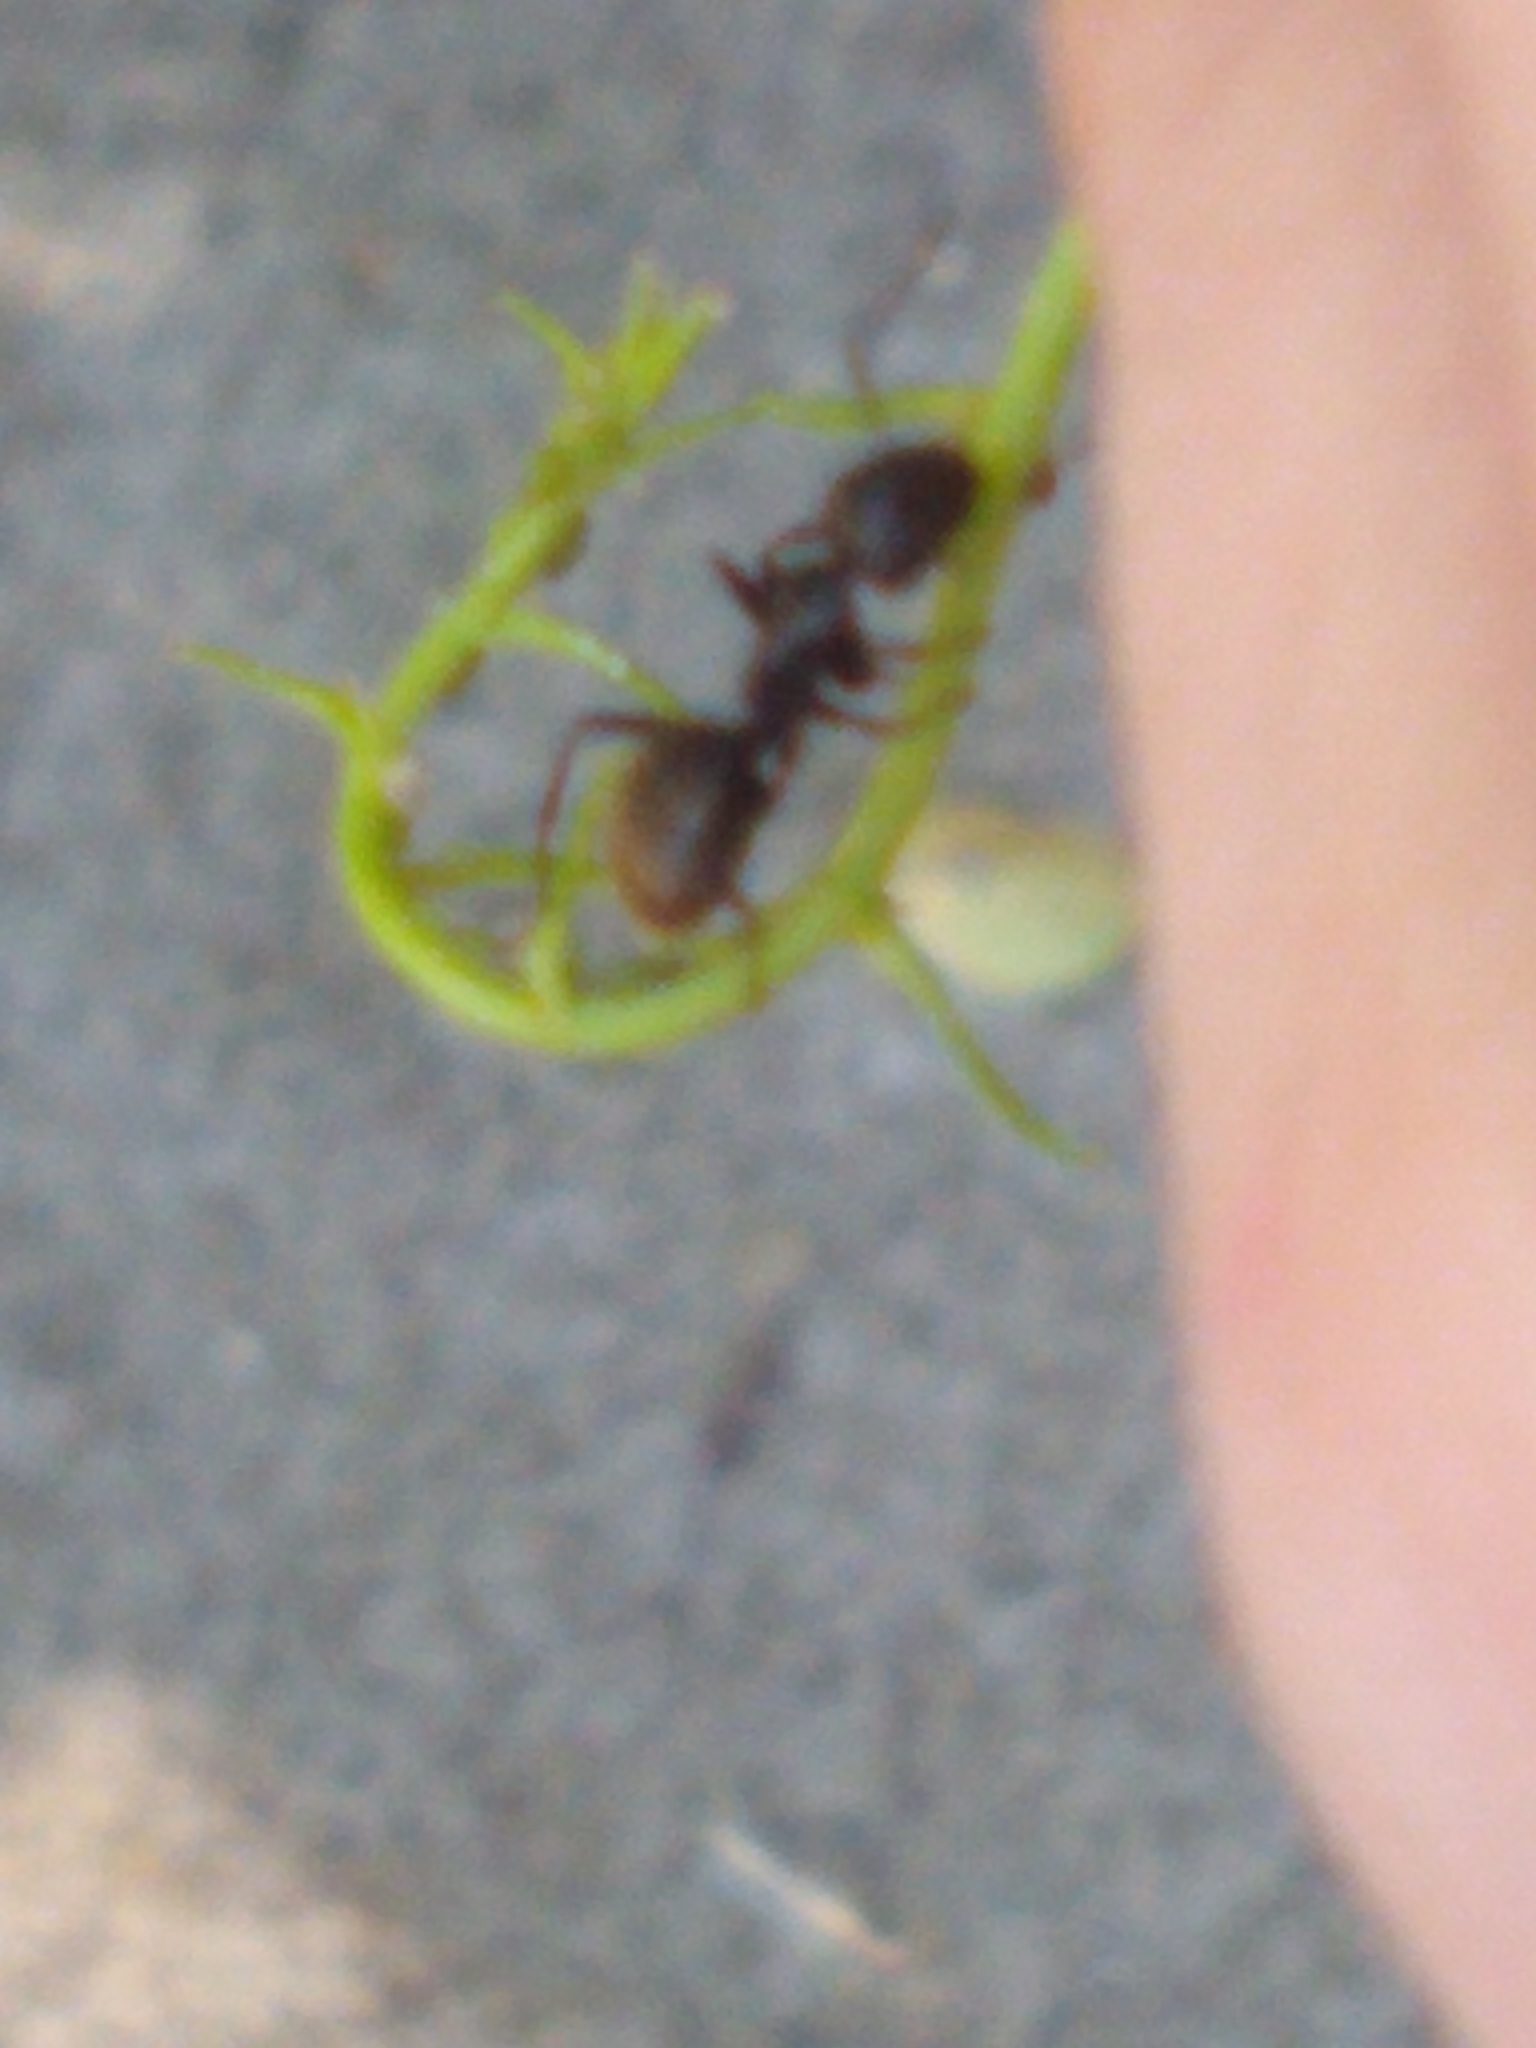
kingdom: Animalia
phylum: Arthropoda
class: Insecta
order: Hymenoptera
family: Formicidae
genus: Camponotus
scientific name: Camponotus pennsylvanicus
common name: Black carpenter ant
